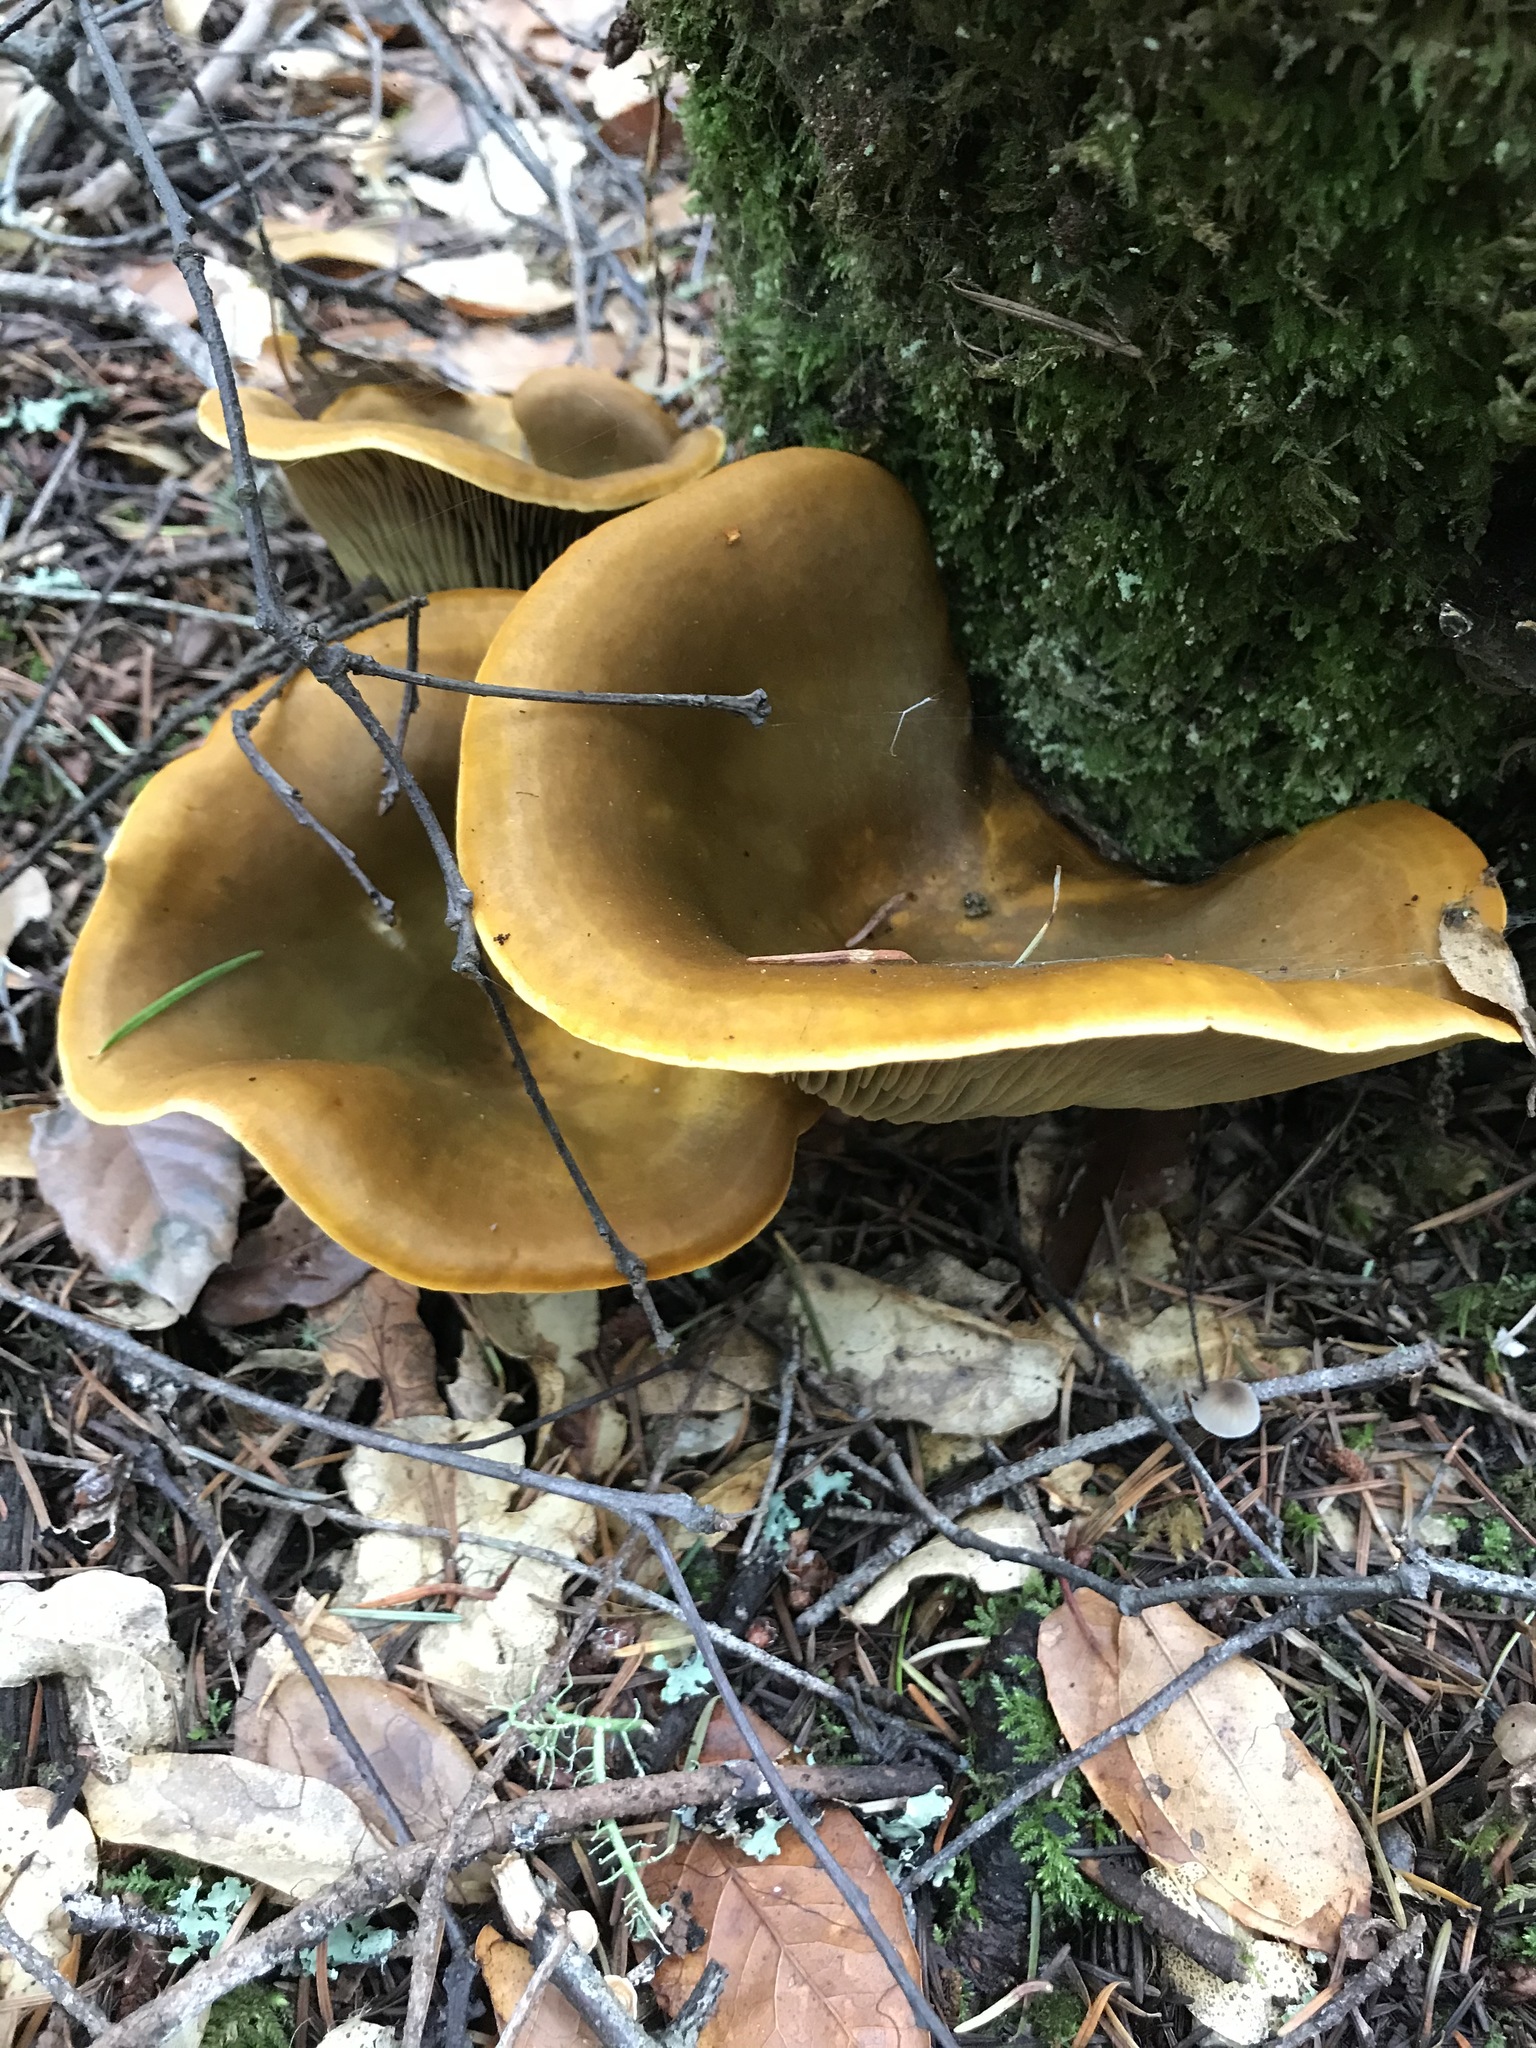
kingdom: Fungi
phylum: Basidiomycota
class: Agaricomycetes
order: Agaricales
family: Omphalotaceae
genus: Omphalotus
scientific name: Omphalotus olivascens
